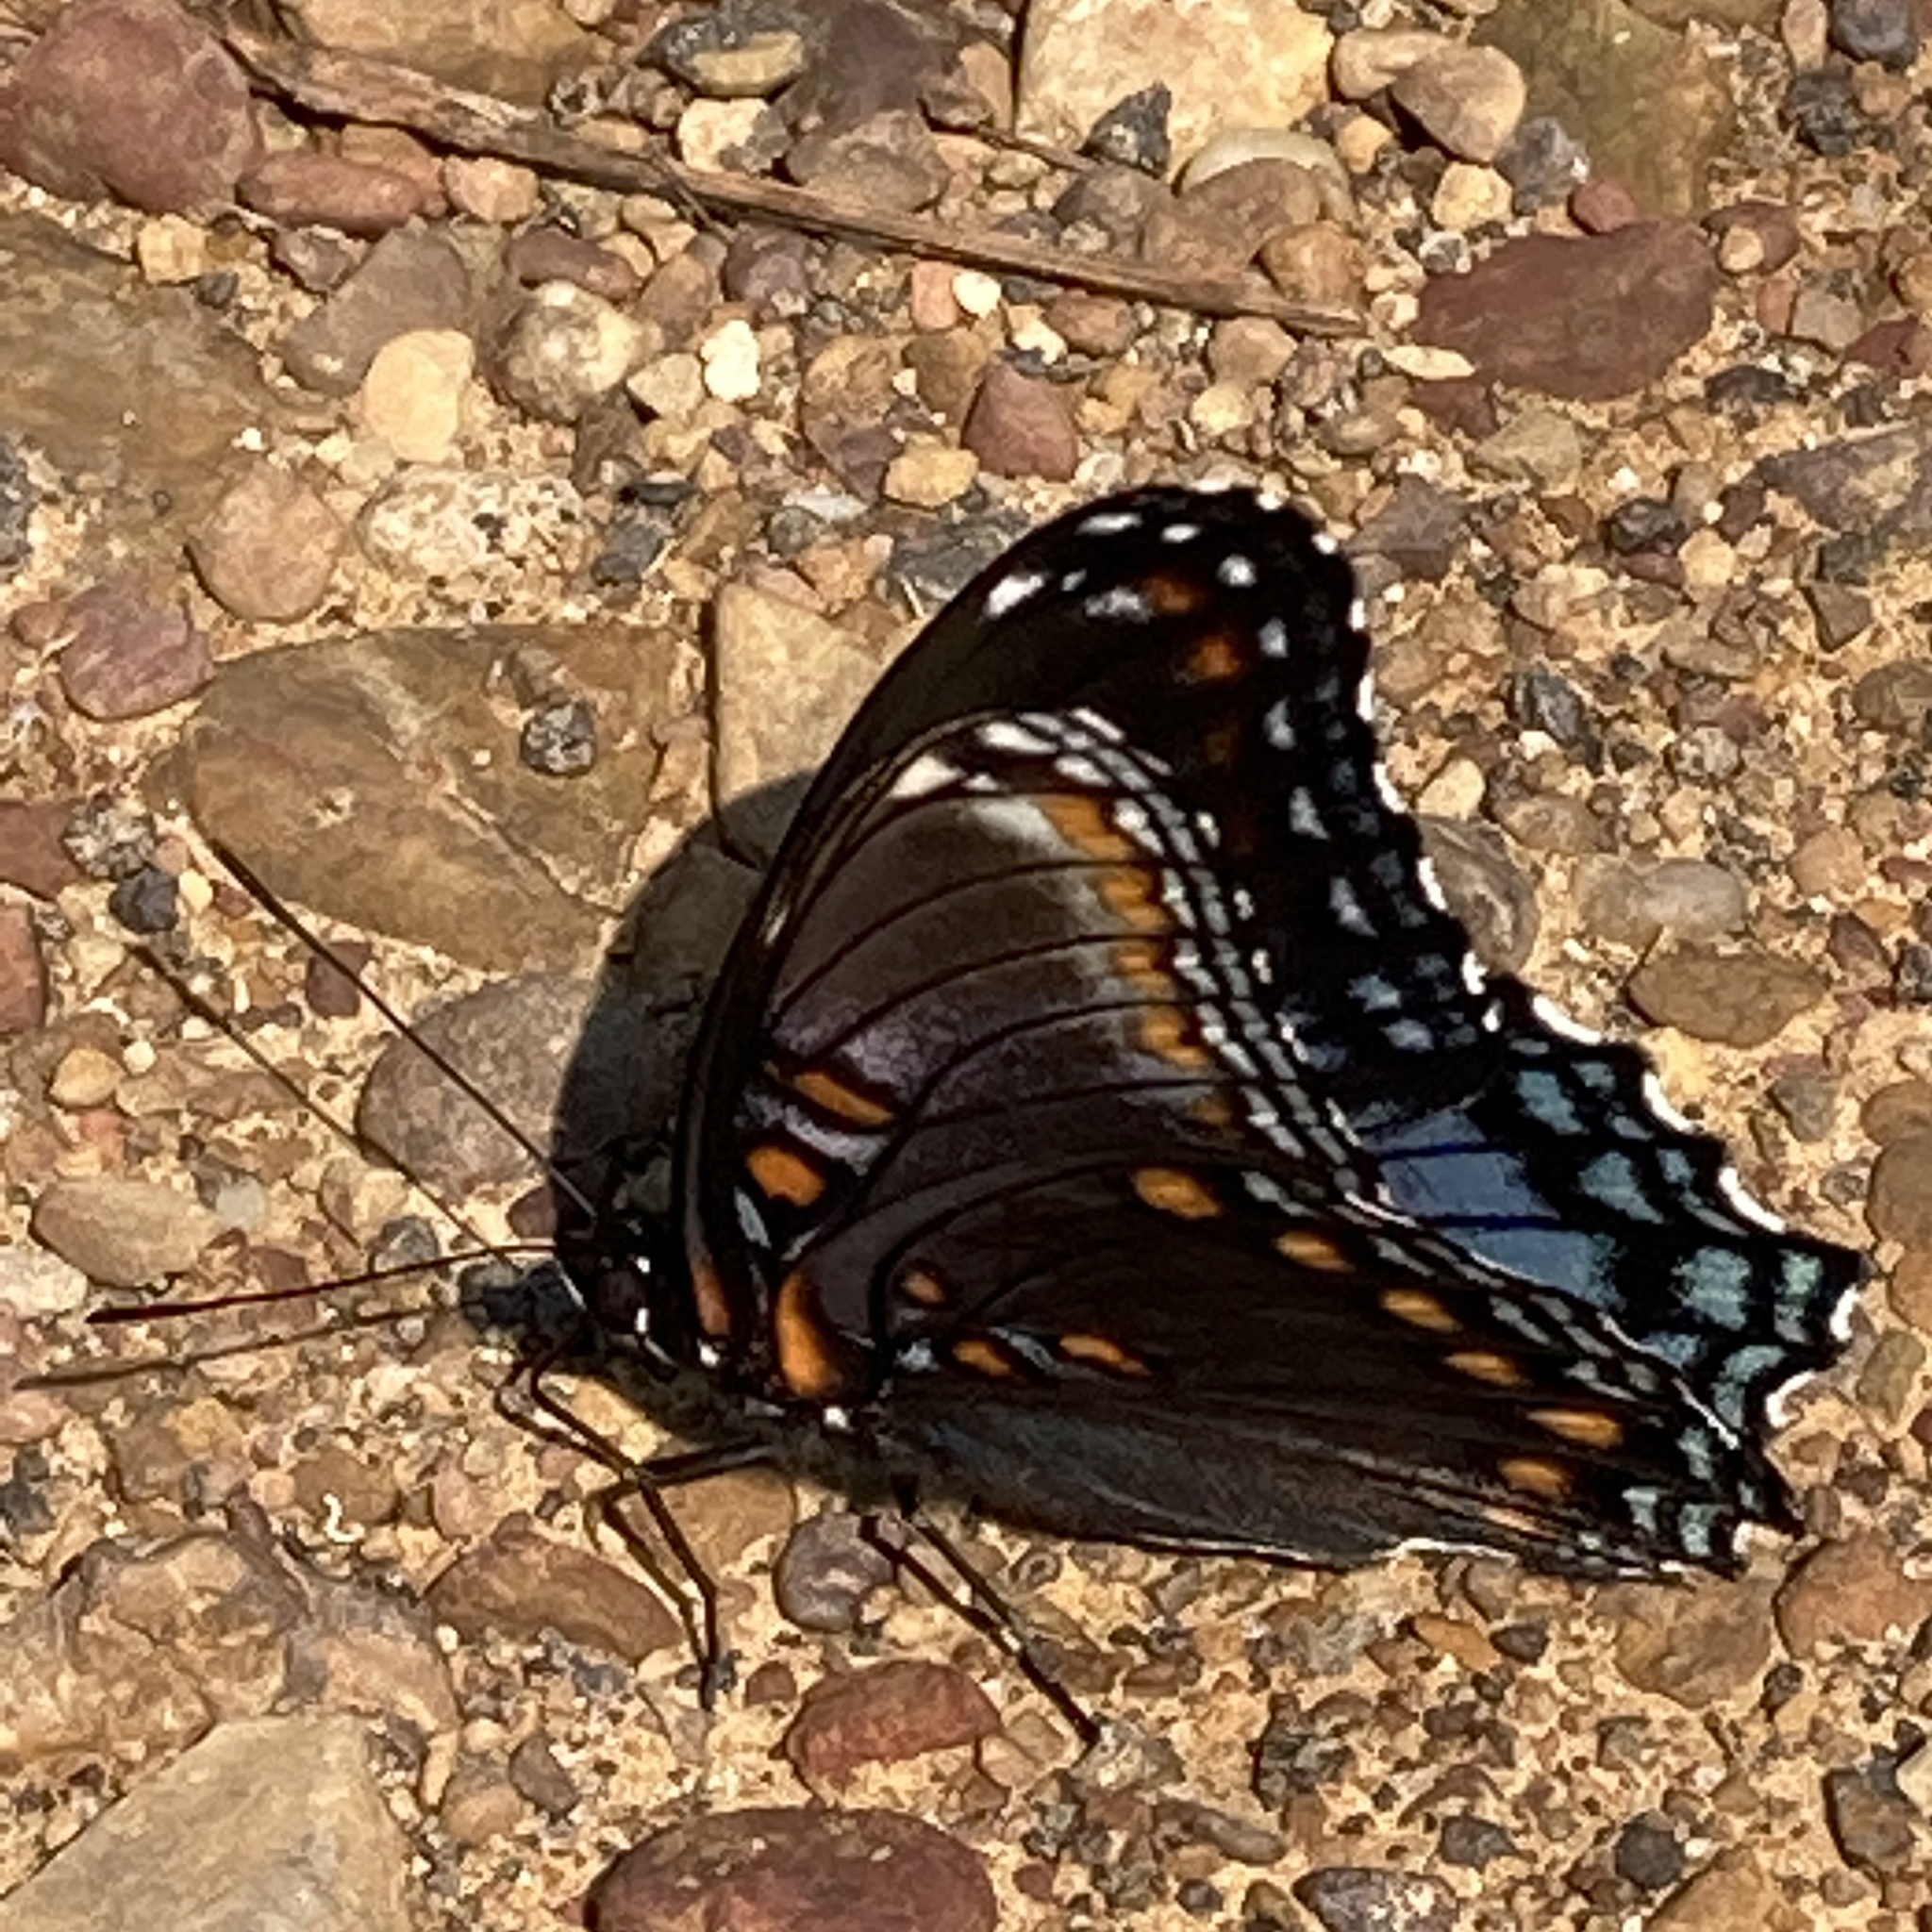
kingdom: Animalia
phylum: Arthropoda
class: Insecta
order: Lepidoptera
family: Nymphalidae
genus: Limenitis
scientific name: Limenitis astyanax
